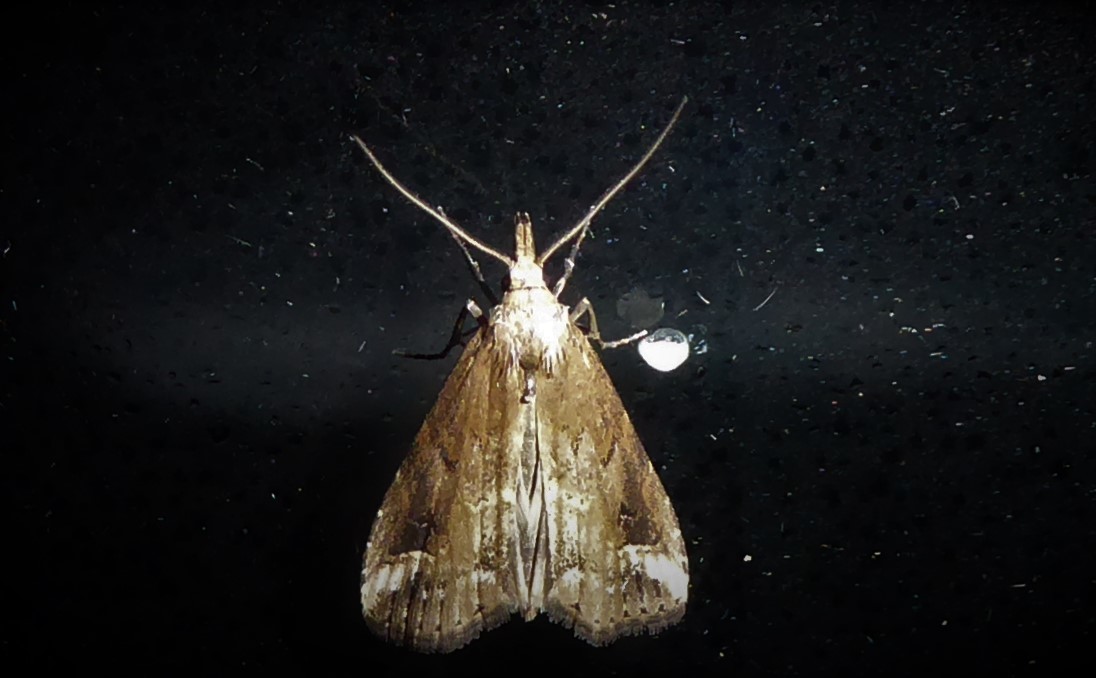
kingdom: Animalia
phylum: Arthropoda
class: Insecta
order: Lepidoptera
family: Erebidae
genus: Schrankia
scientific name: Schrankia costaestrigalis
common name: Pinion-streaked snout
